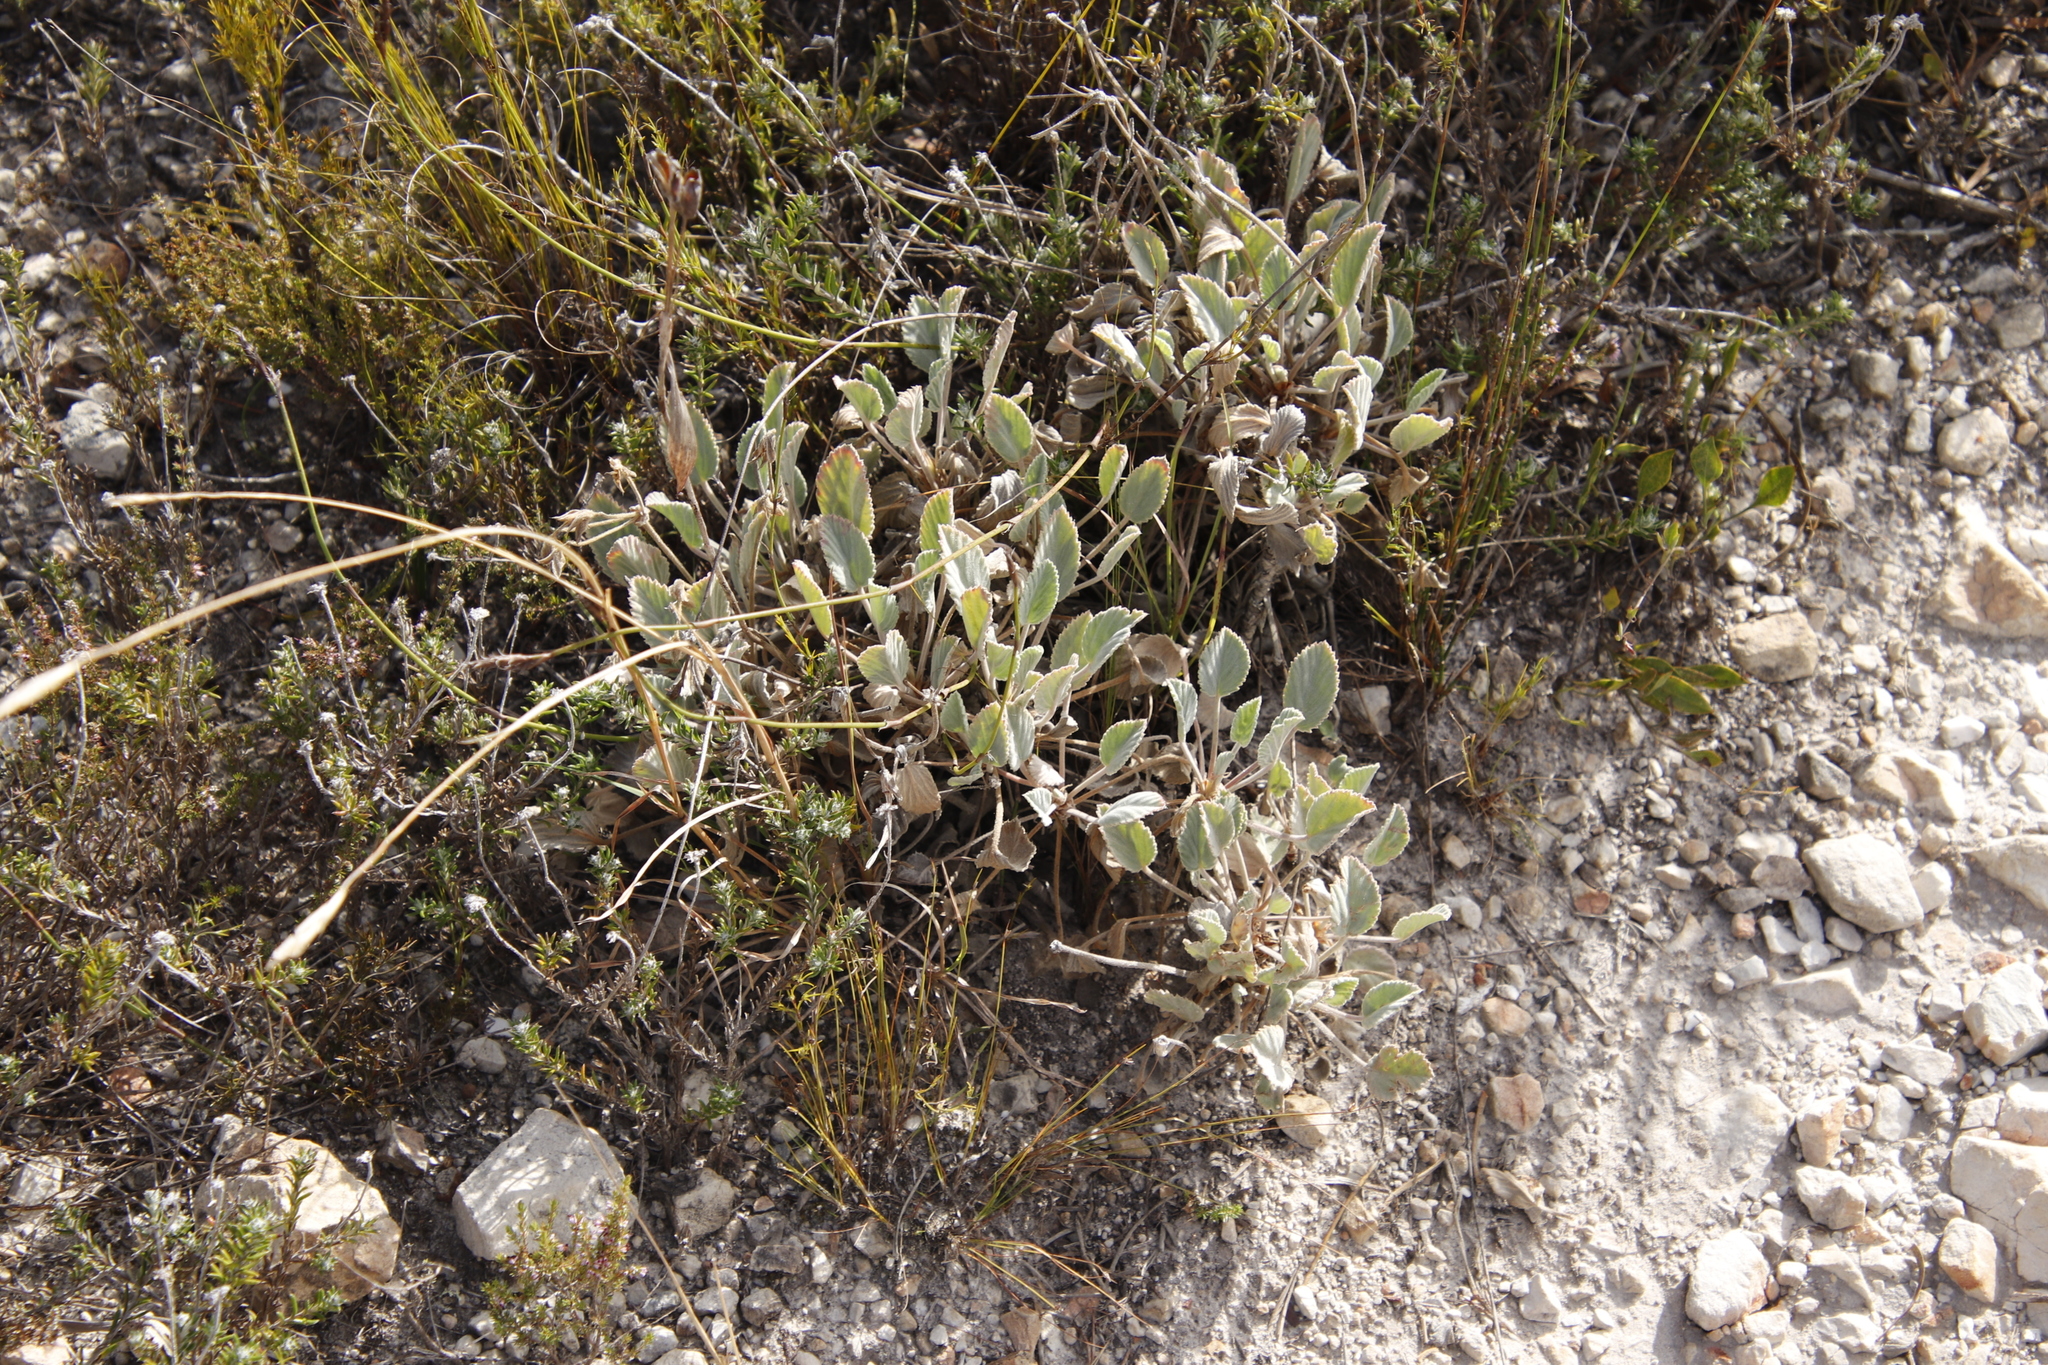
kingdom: Plantae
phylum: Tracheophyta
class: Magnoliopsida
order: Geraniales
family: Geraniaceae
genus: Pelargonium
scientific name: Pelargonium ovale
